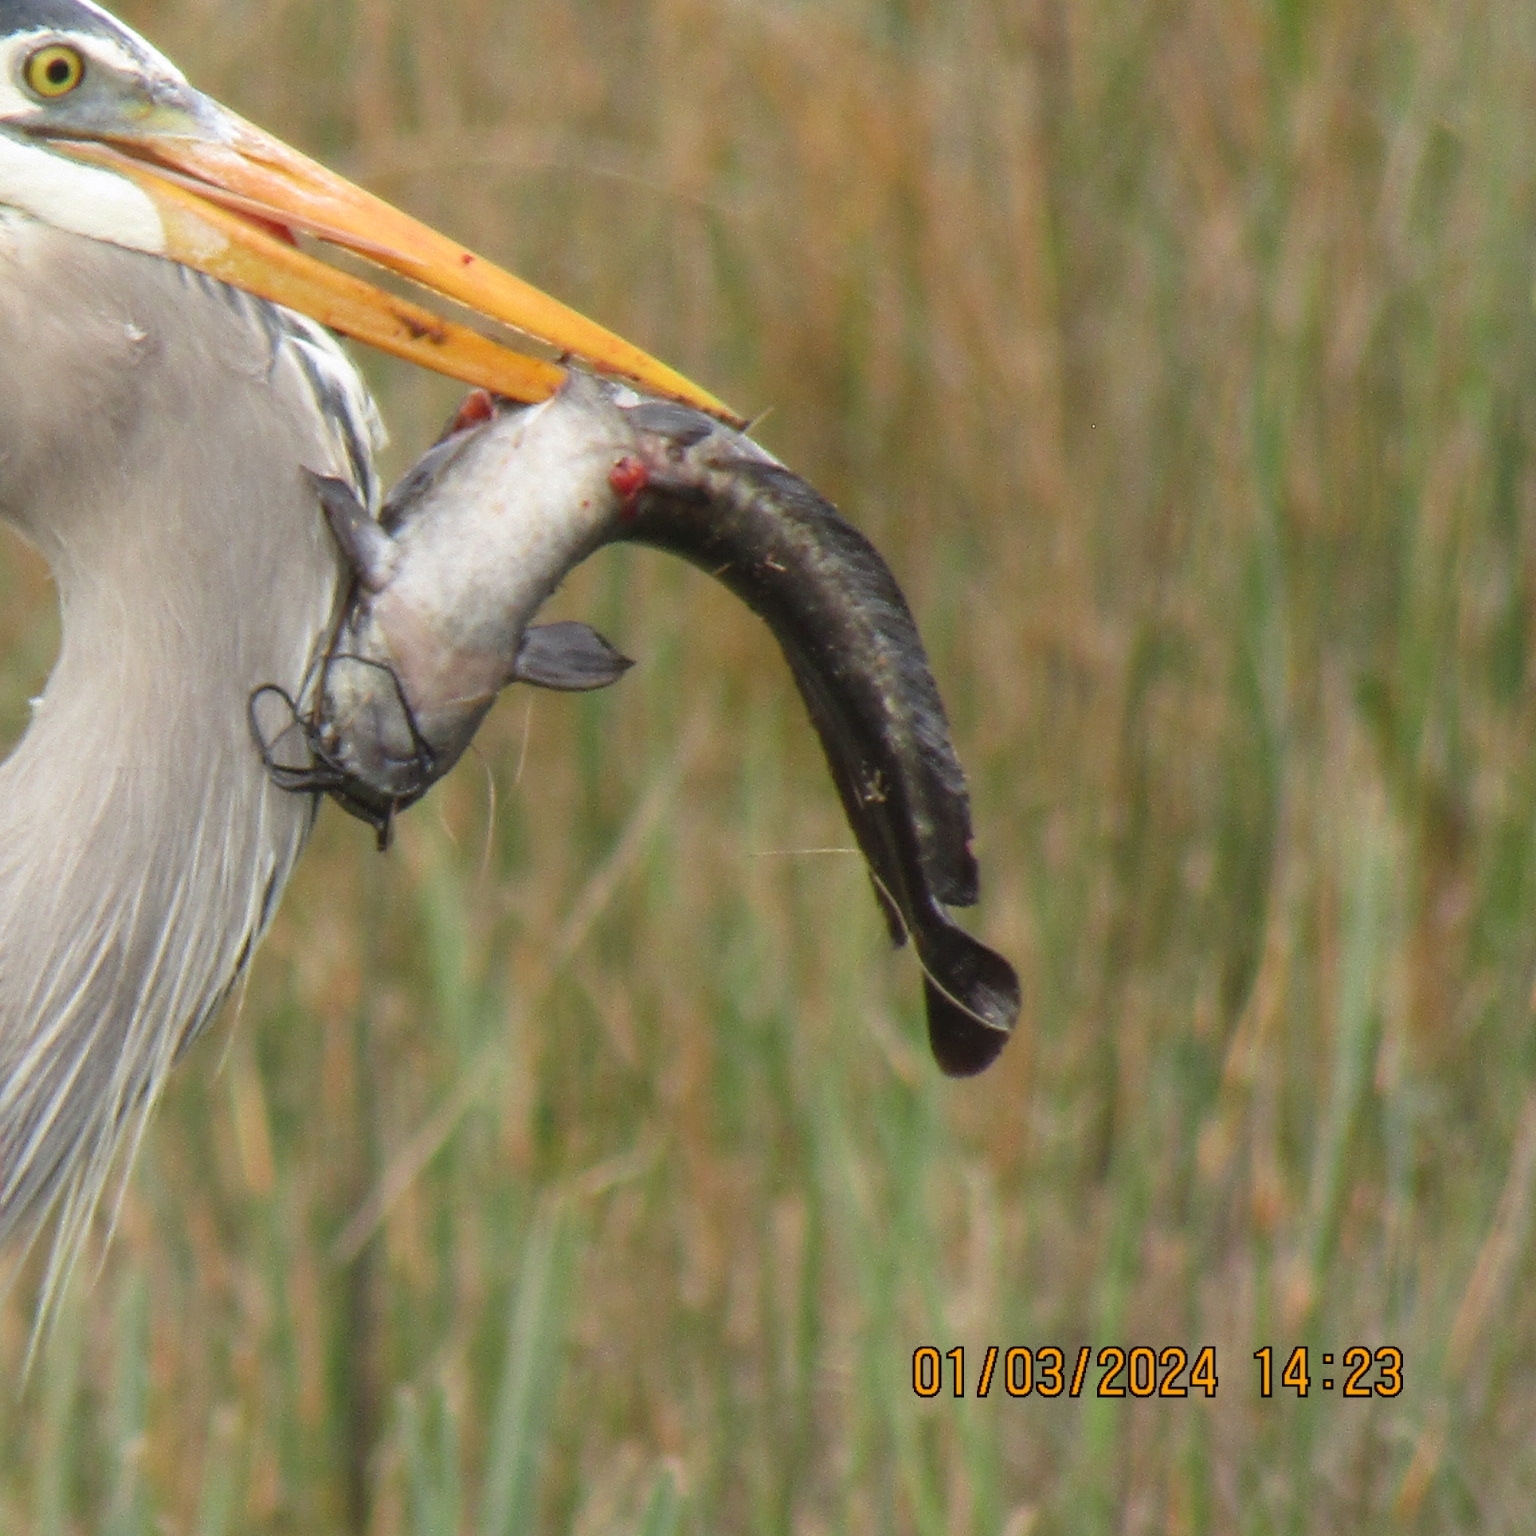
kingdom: Animalia
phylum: Chordata
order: Siluriformes
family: Clariidae
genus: Clarias
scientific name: Clarias batrachus
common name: Walking catfish
